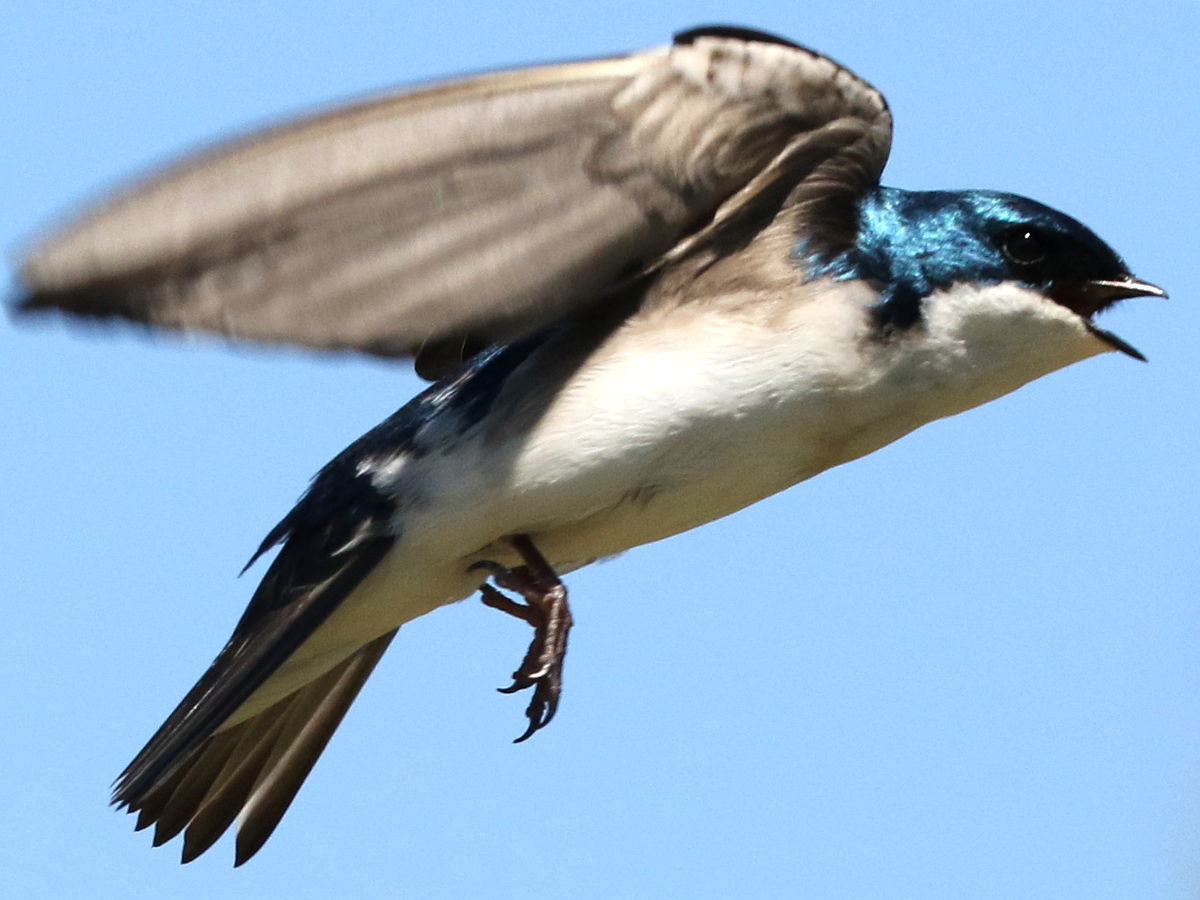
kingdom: Animalia
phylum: Chordata
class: Aves
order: Passeriformes
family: Hirundinidae
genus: Tachycineta
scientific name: Tachycineta bicolor
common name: Tree swallow
